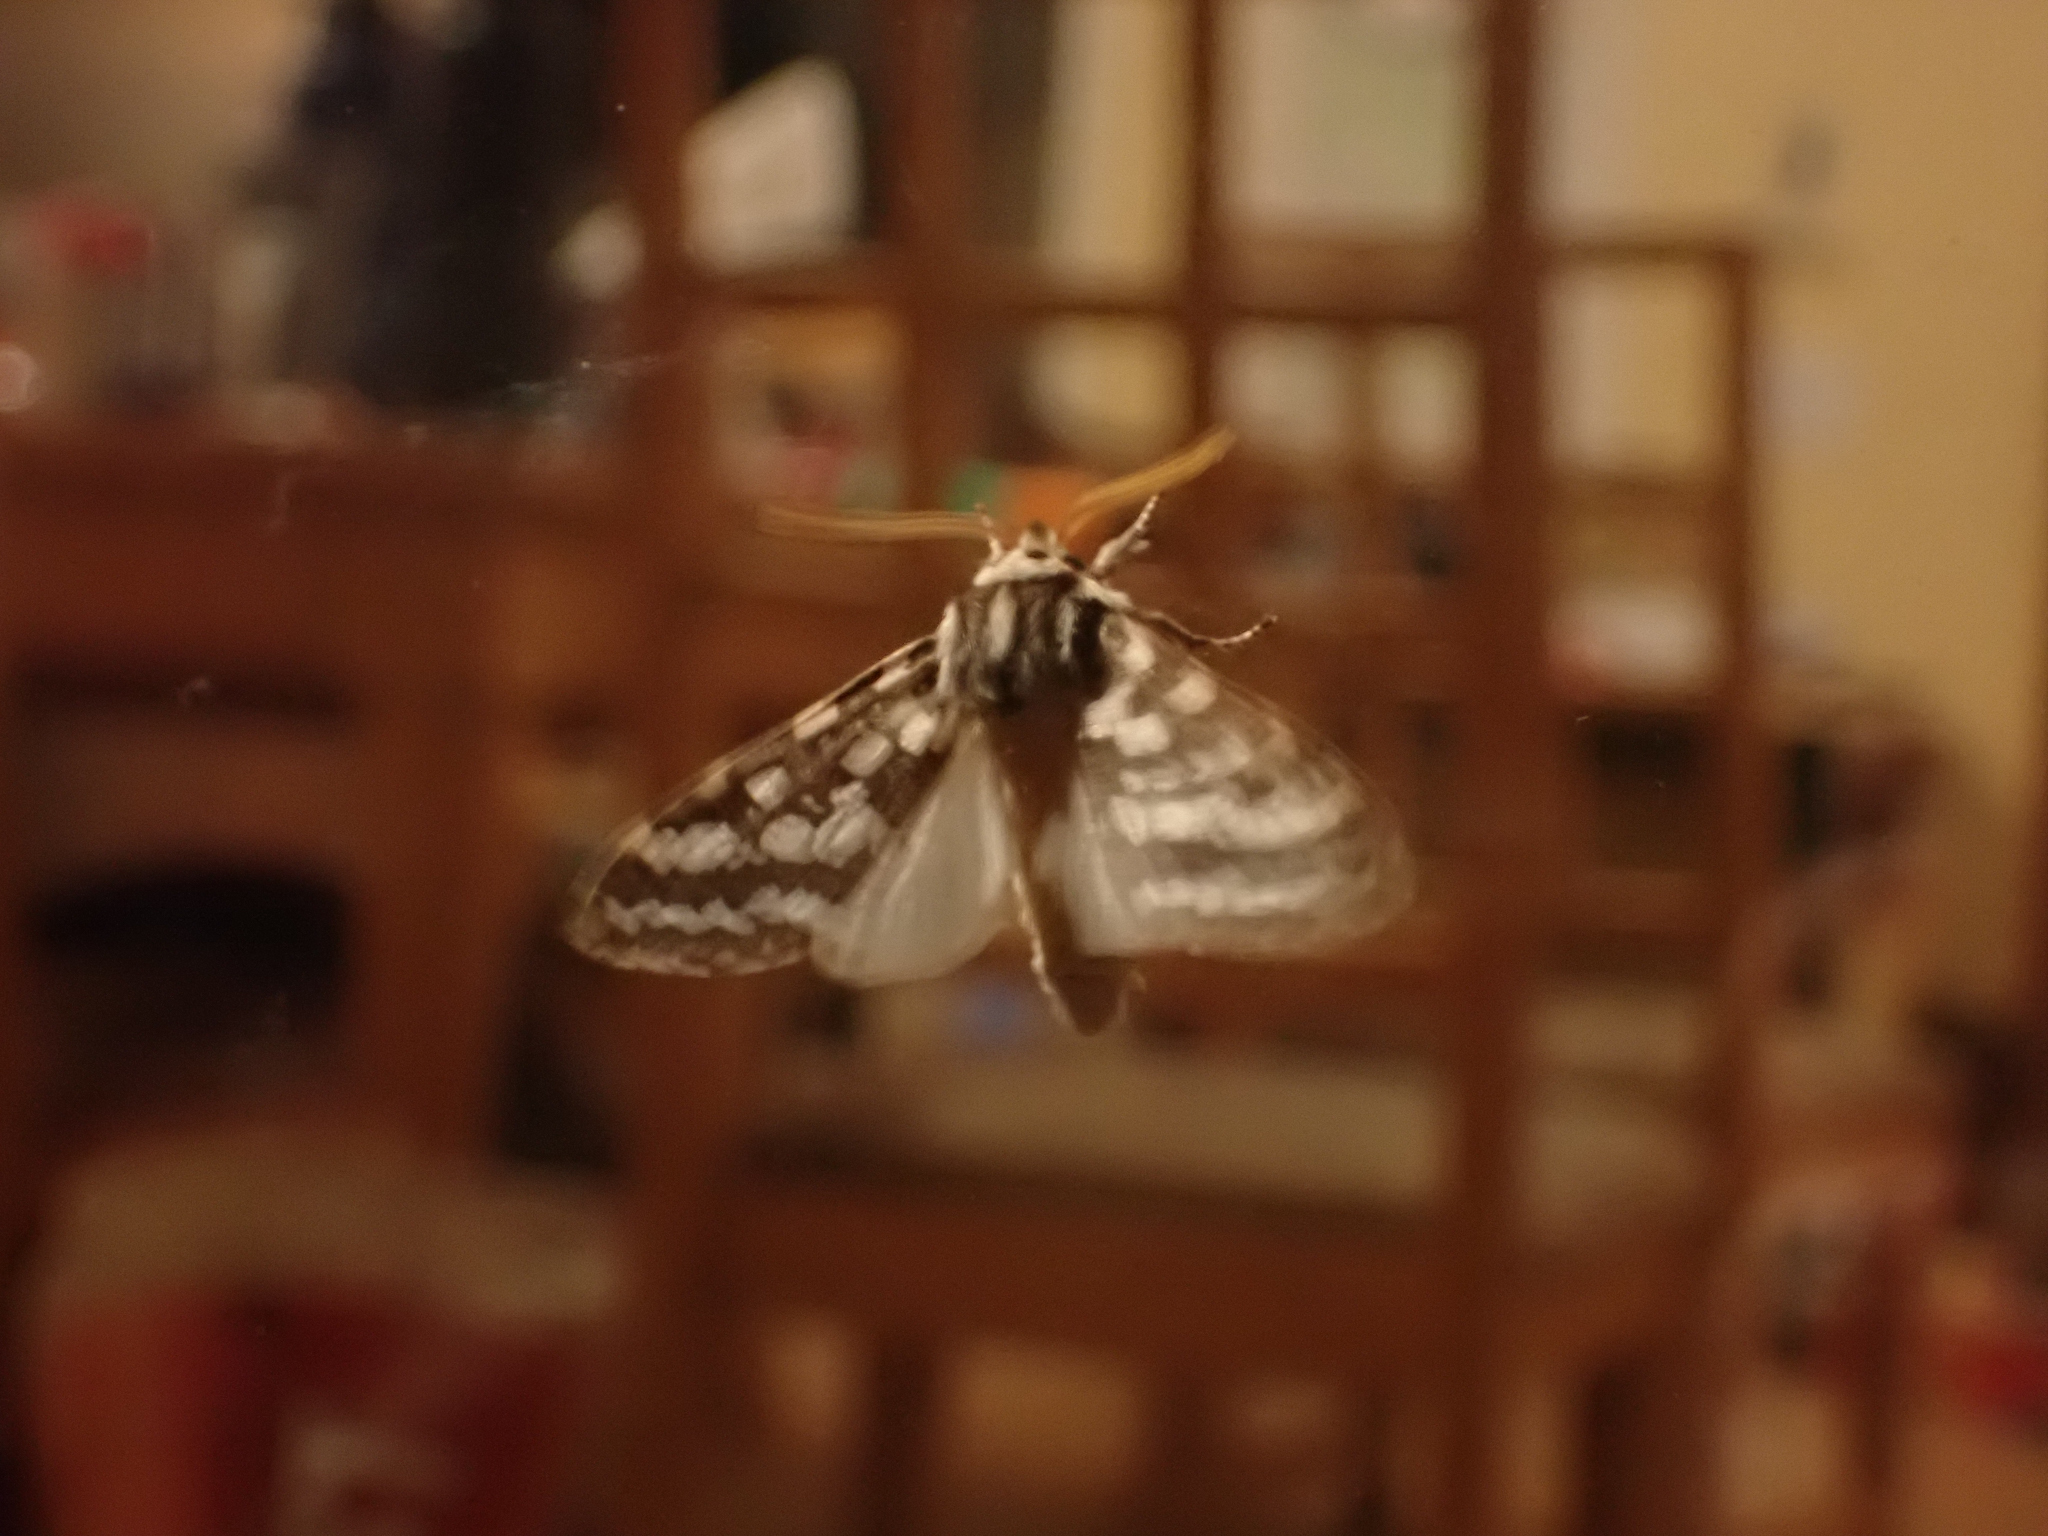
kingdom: Animalia
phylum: Arthropoda
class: Insecta
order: Lepidoptera
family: Erebidae
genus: Lophocampa
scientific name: Lophocampa argentata
